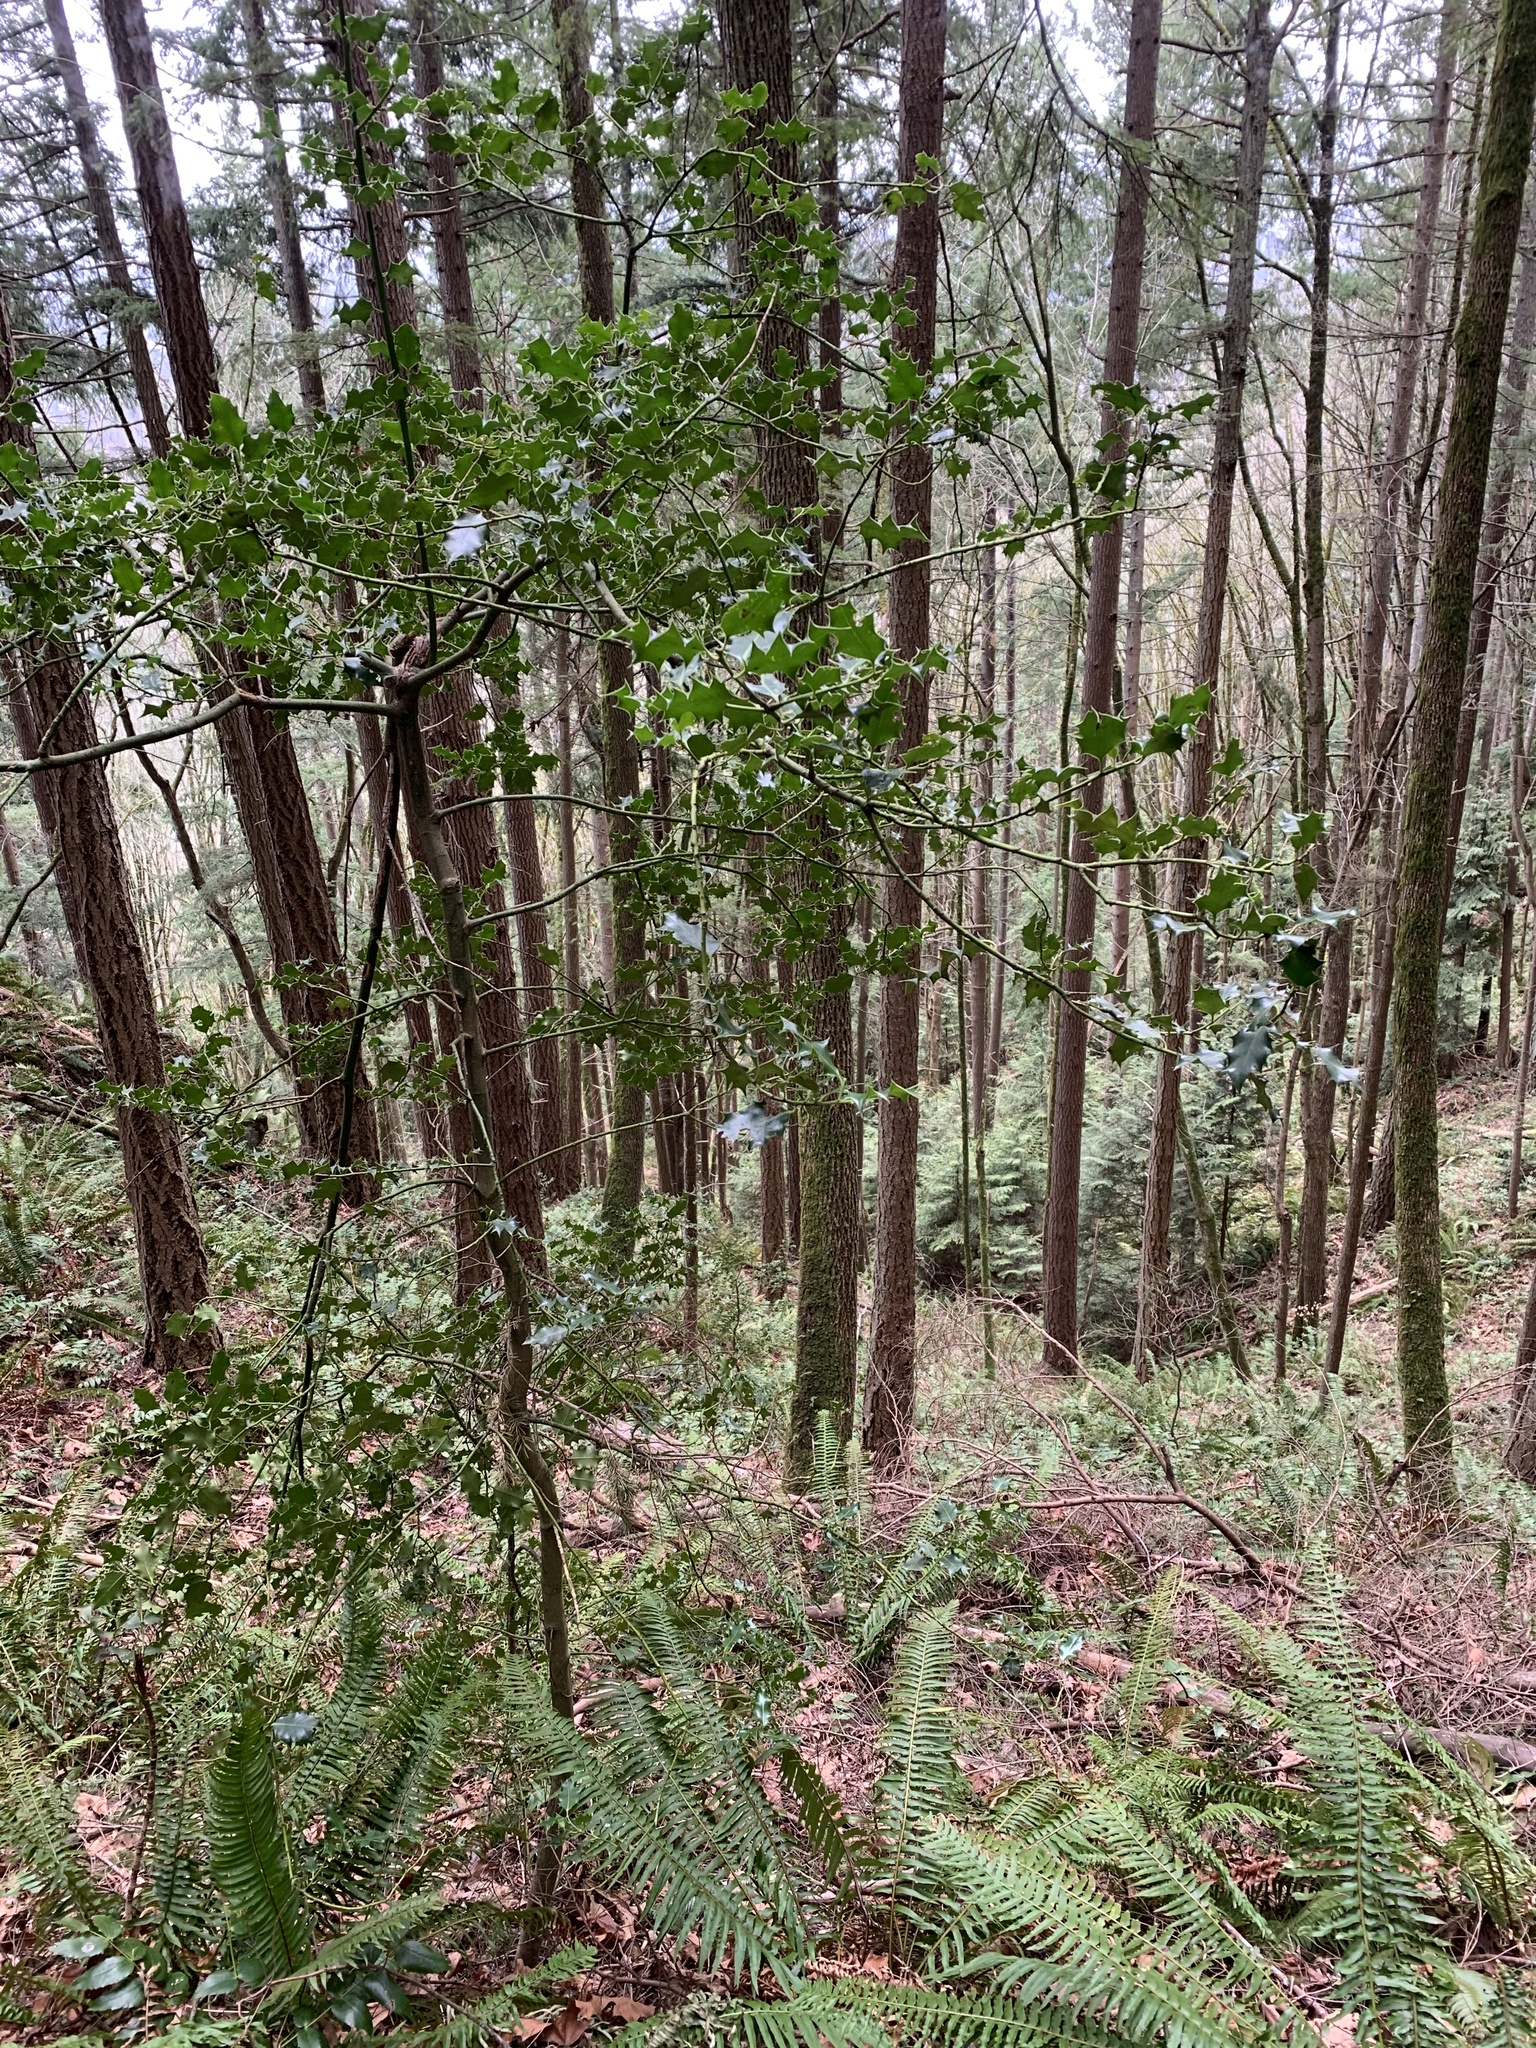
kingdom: Plantae
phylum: Tracheophyta
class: Magnoliopsida
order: Aquifoliales
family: Aquifoliaceae
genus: Ilex
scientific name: Ilex aquifolium
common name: English holly
